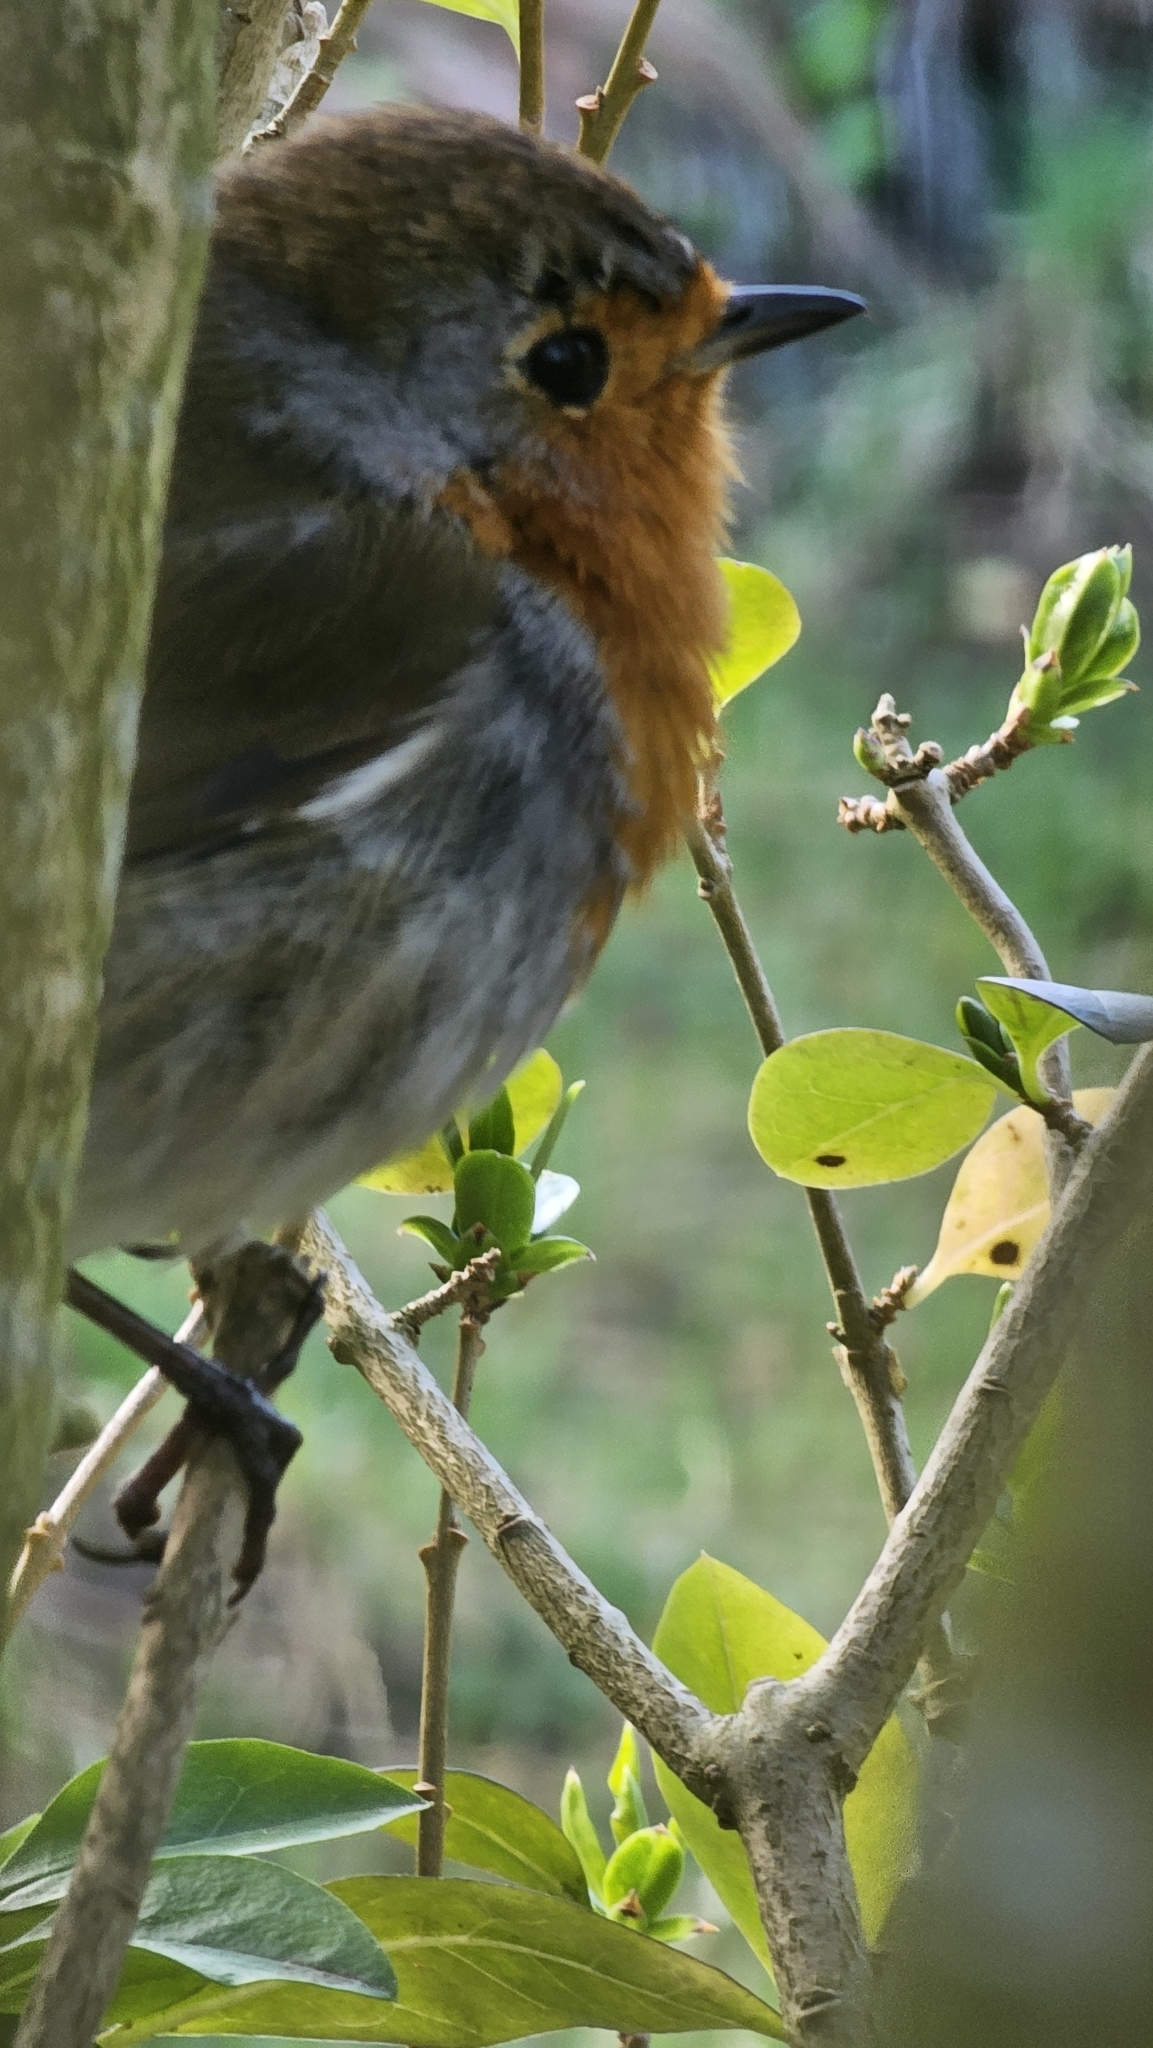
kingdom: Animalia
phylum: Chordata
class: Aves
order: Passeriformes
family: Muscicapidae
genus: Erithacus
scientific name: Erithacus rubecula
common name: European robin
